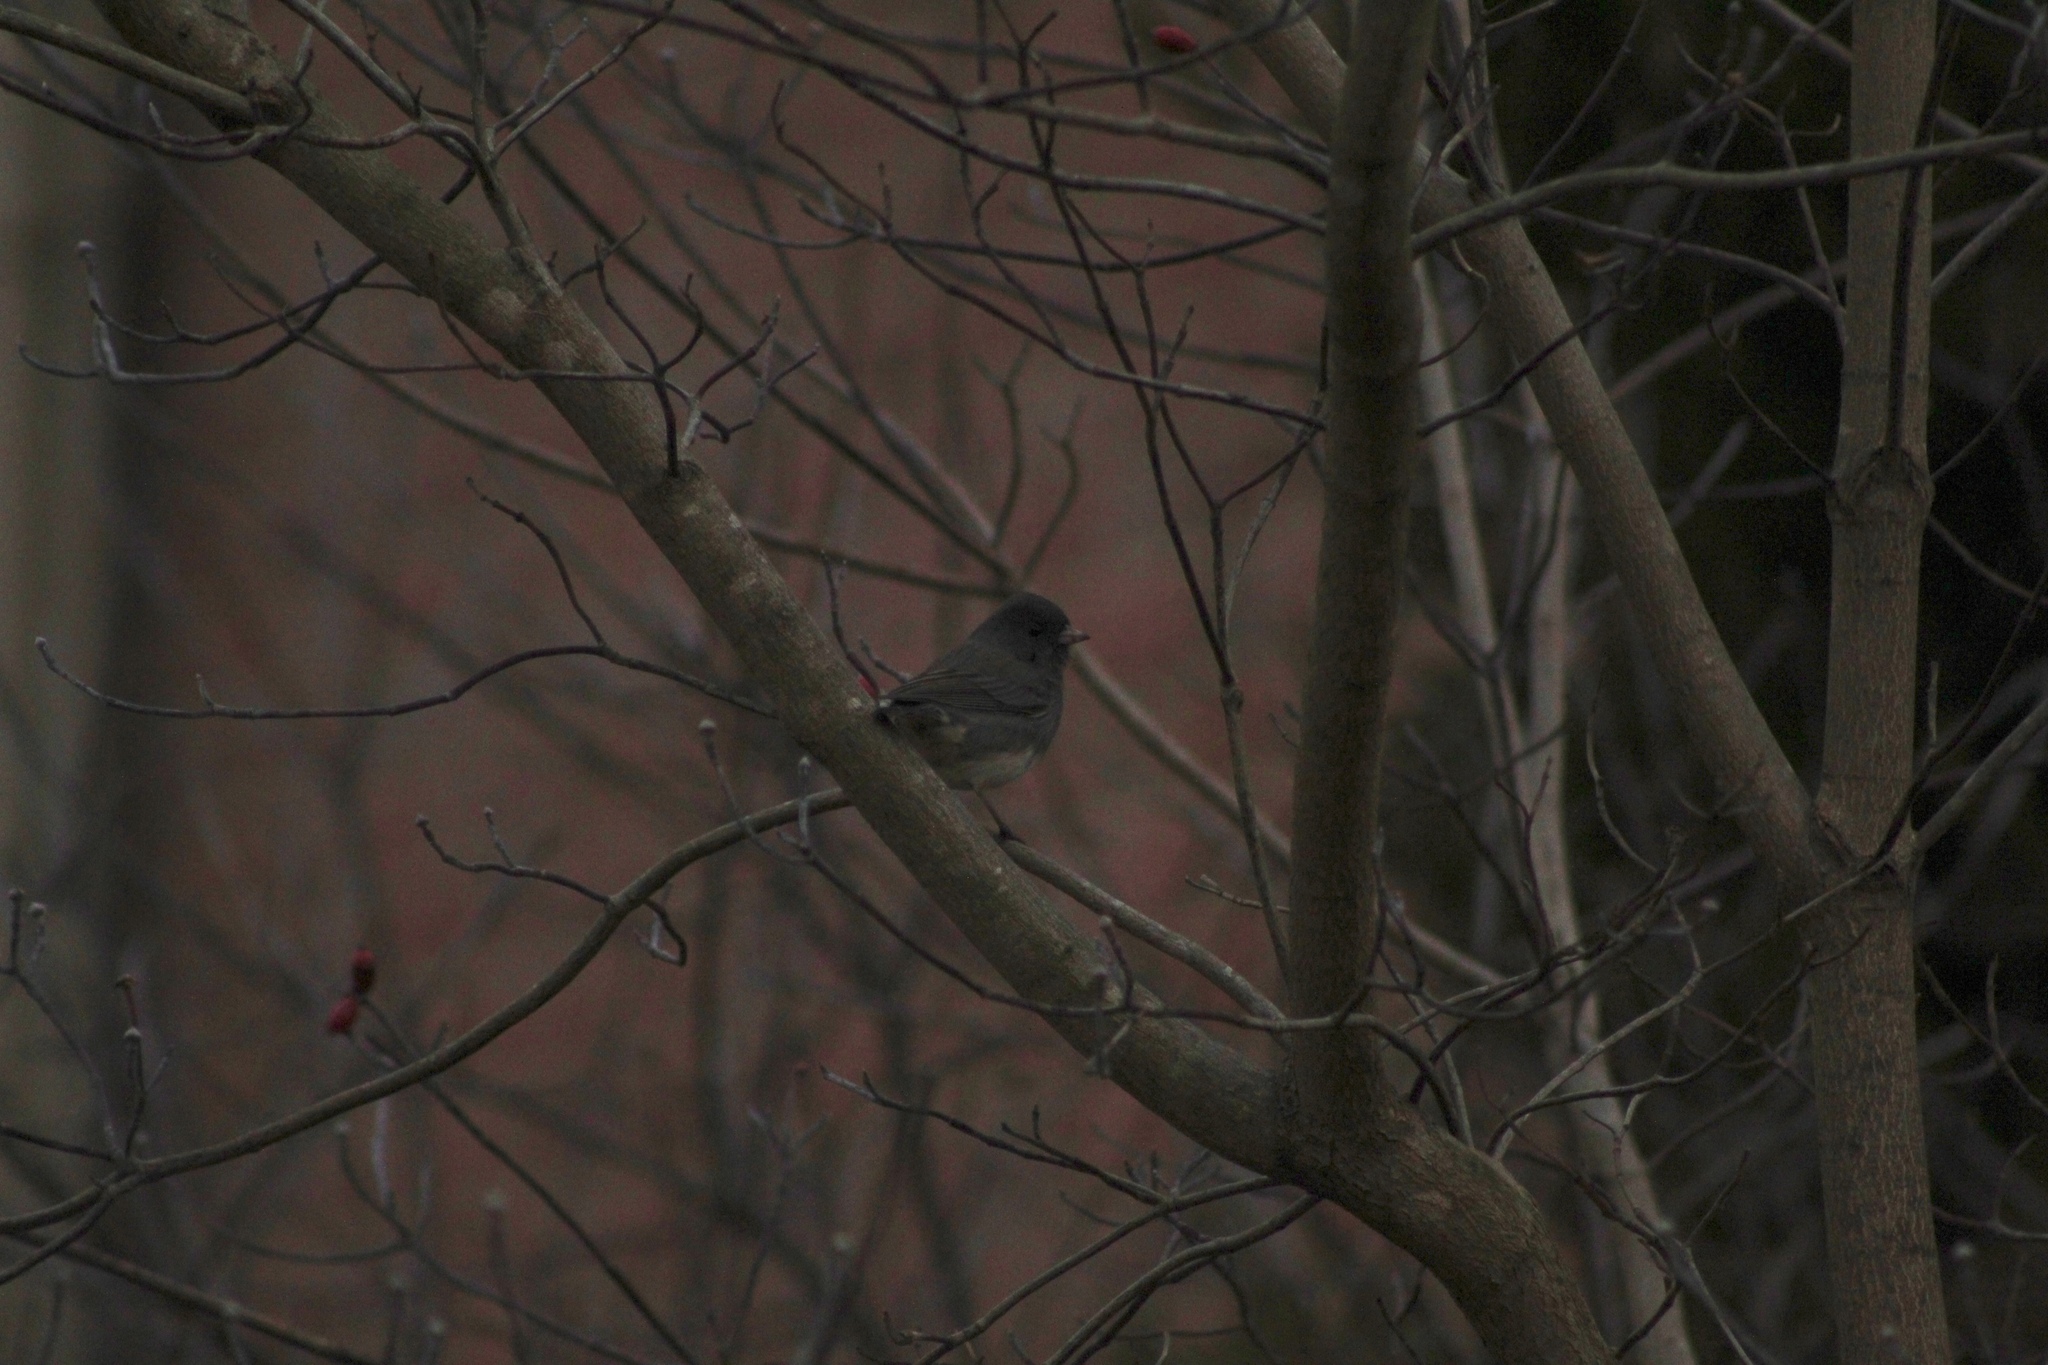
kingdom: Animalia
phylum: Chordata
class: Aves
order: Passeriformes
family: Passerellidae
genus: Junco
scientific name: Junco hyemalis
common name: Dark-eyed junco
